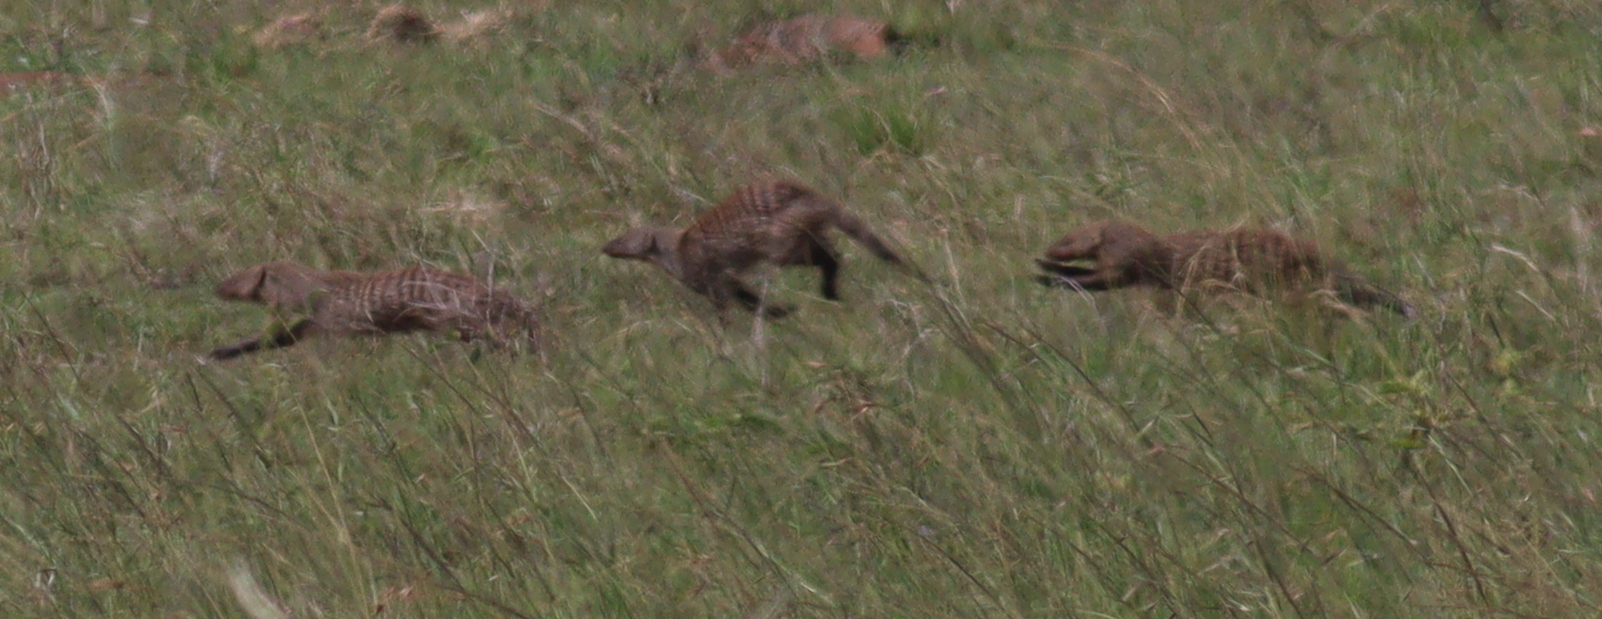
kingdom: Animalia
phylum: Chordata
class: Mammalia
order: Carnivora
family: Herpestidae
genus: Mungos
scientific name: Mungos mungo
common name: Banded mongoose
